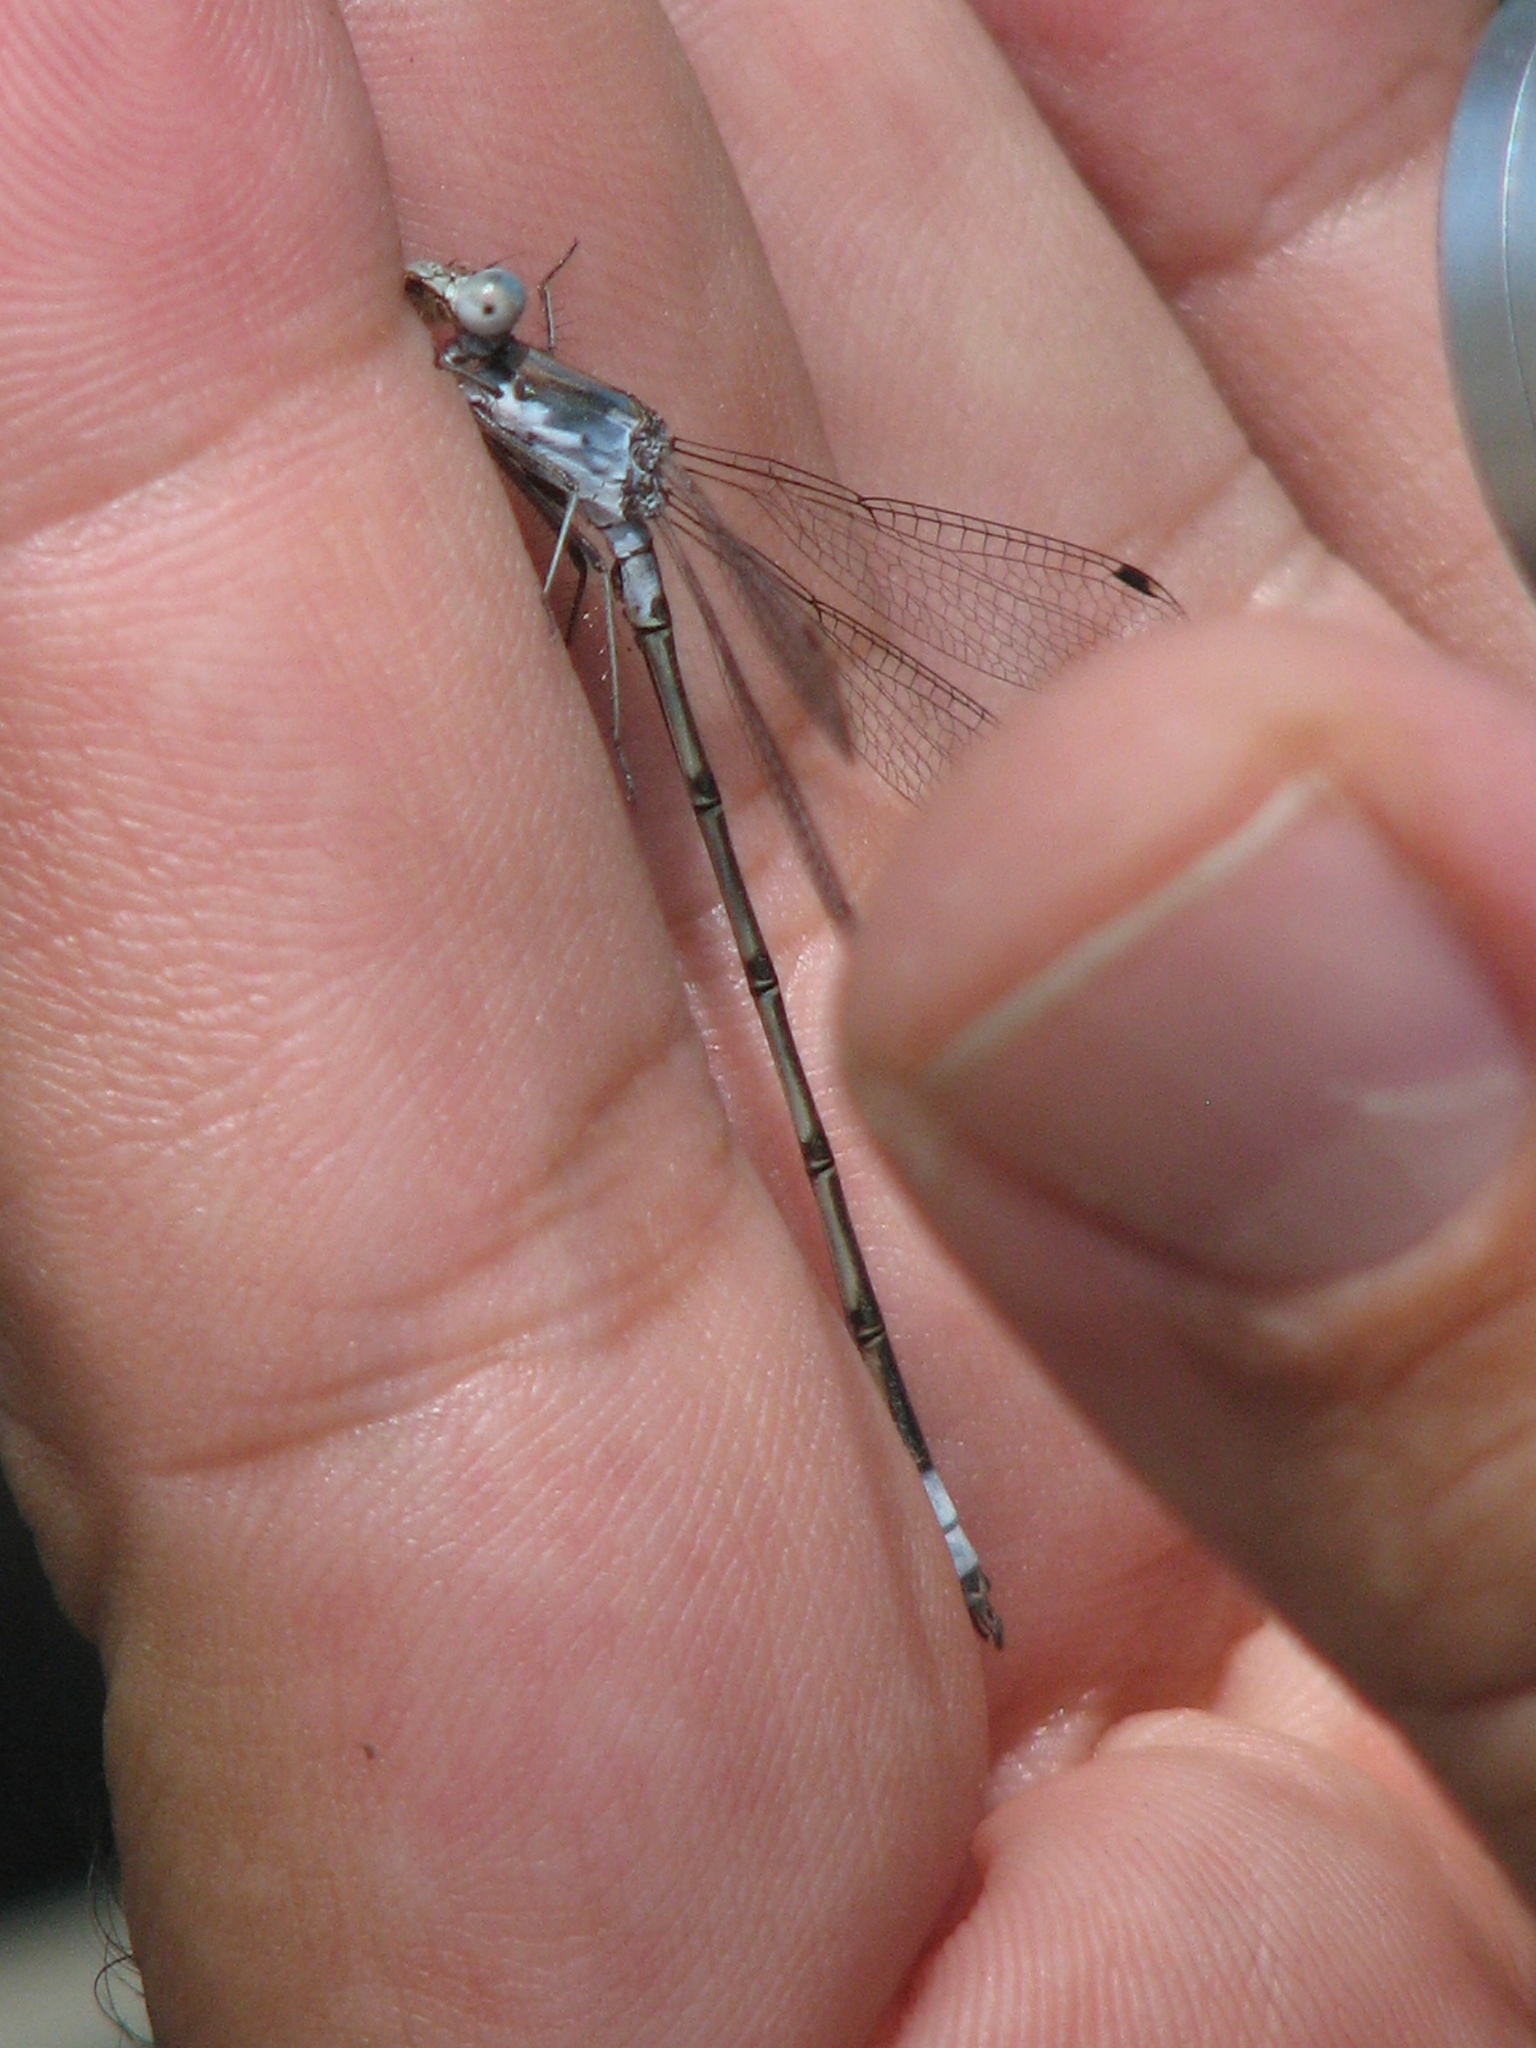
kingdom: Animalia
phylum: Arthropoda
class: Insecta
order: Odonata
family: Lestidae
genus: Lestes
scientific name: Lestes sigma
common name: Chalky spreadwing
